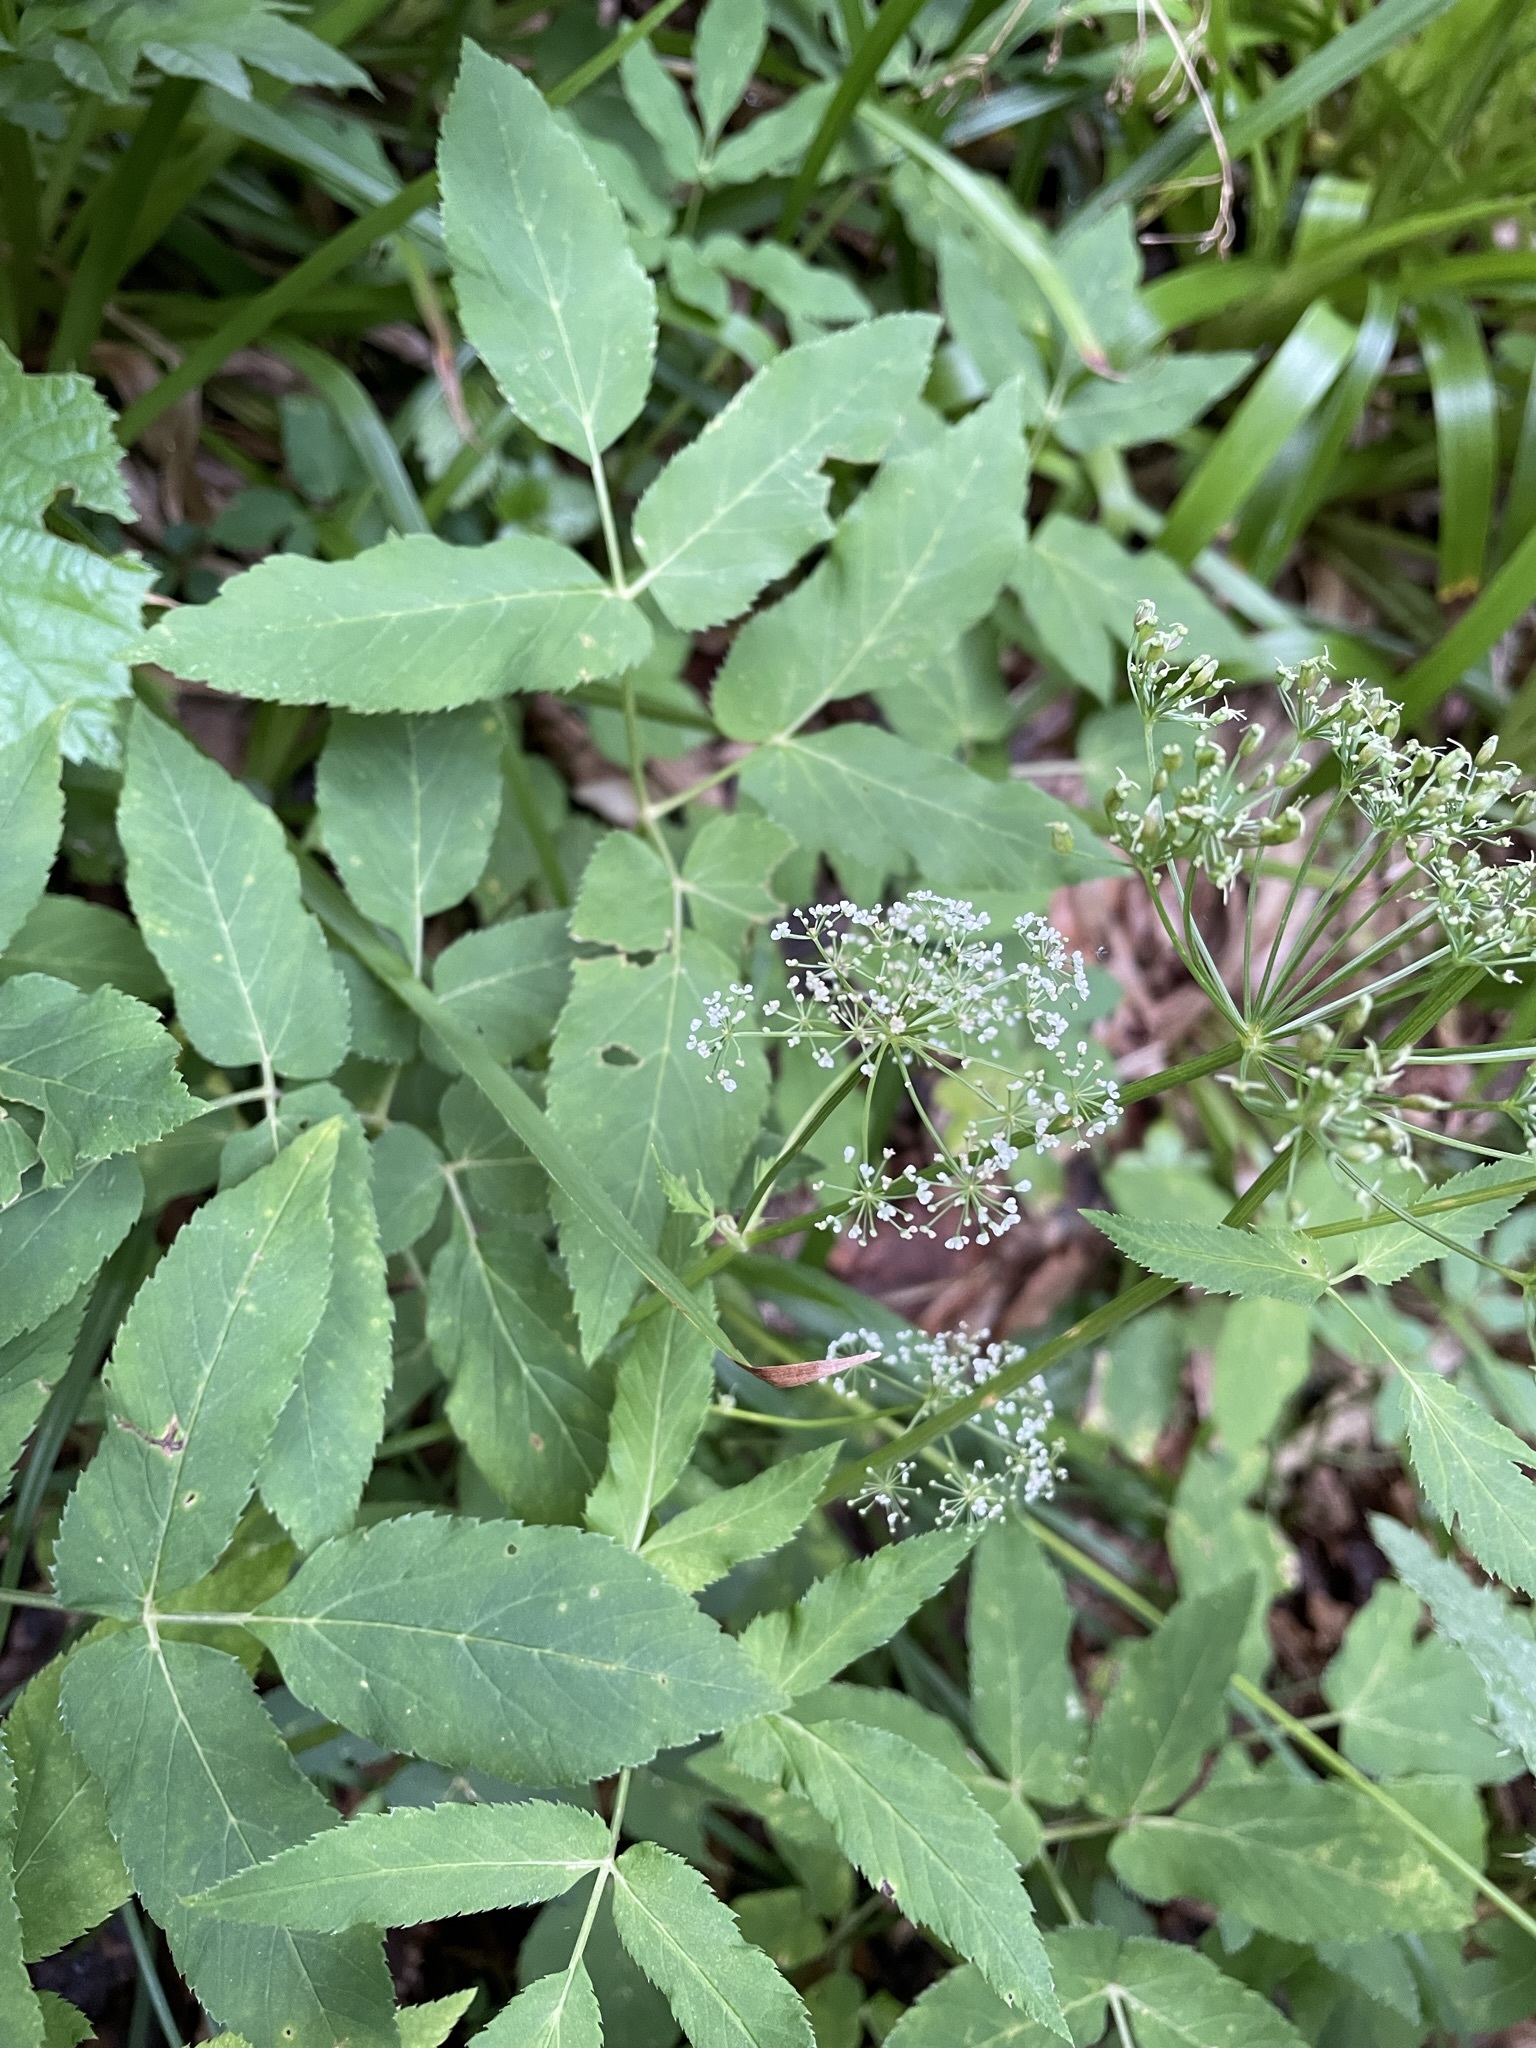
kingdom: Plantae
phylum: Tracheophyta
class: Magnoliopsida
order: Apiales
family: Apiaceae
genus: Aegopodium
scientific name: Aegopodium podagraria
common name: Ground-elder
